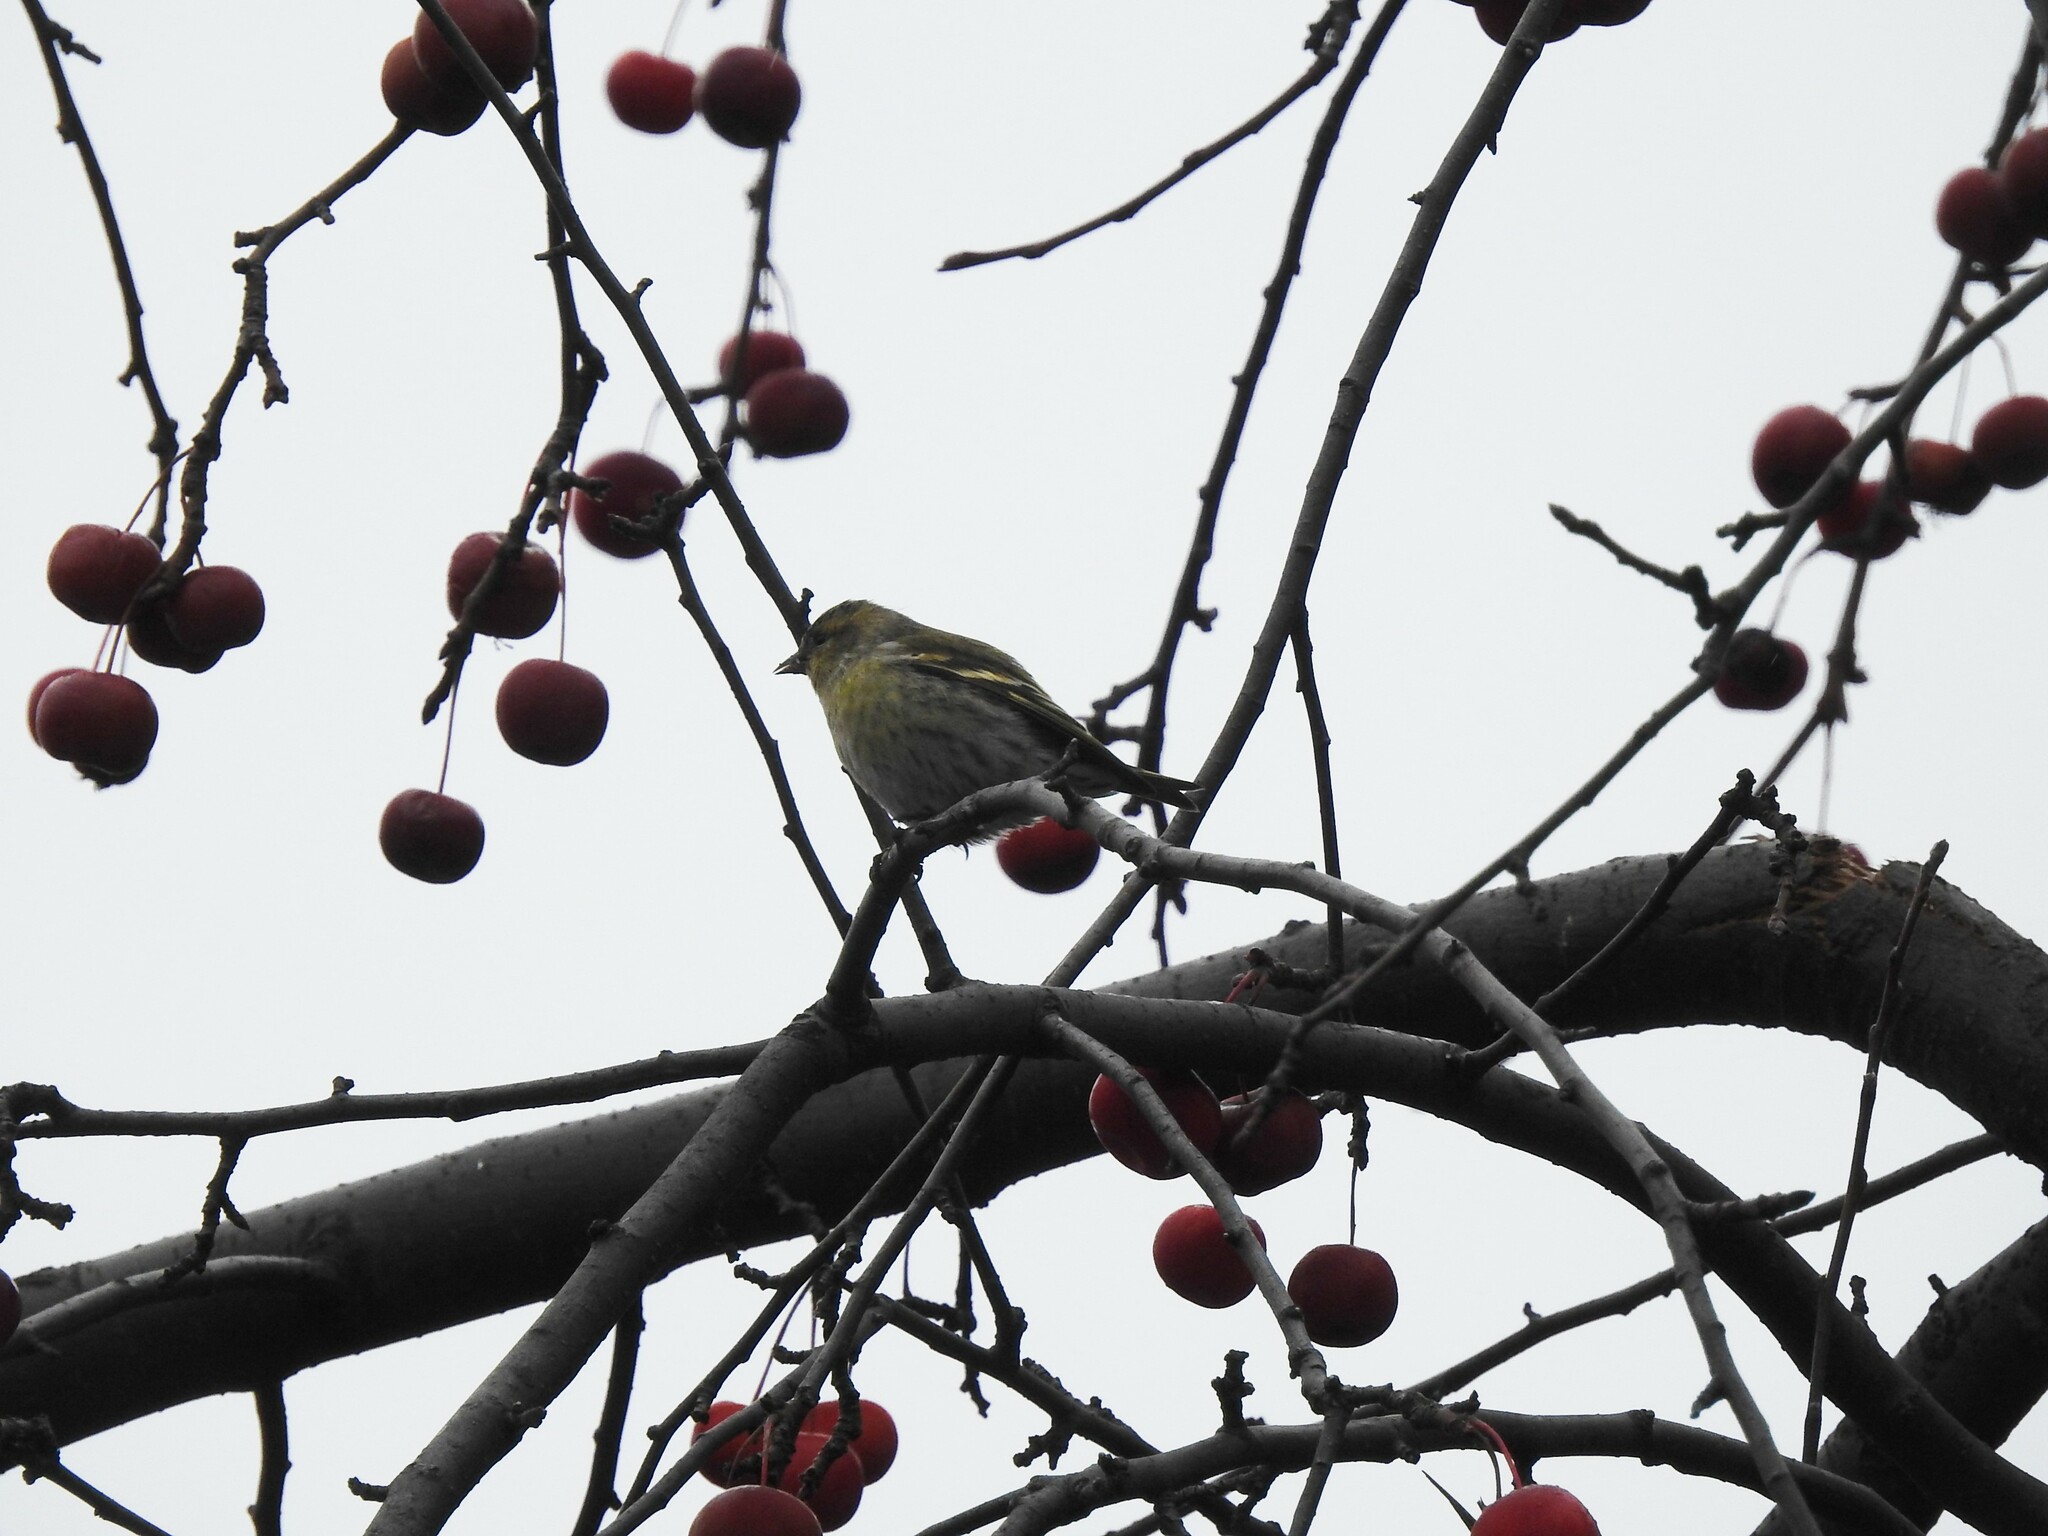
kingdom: Animalia
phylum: Chordata
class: Aves
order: Passeriformes
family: Fringillidae
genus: Spinus
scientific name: Spinus spinus
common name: Eurasian siskin
